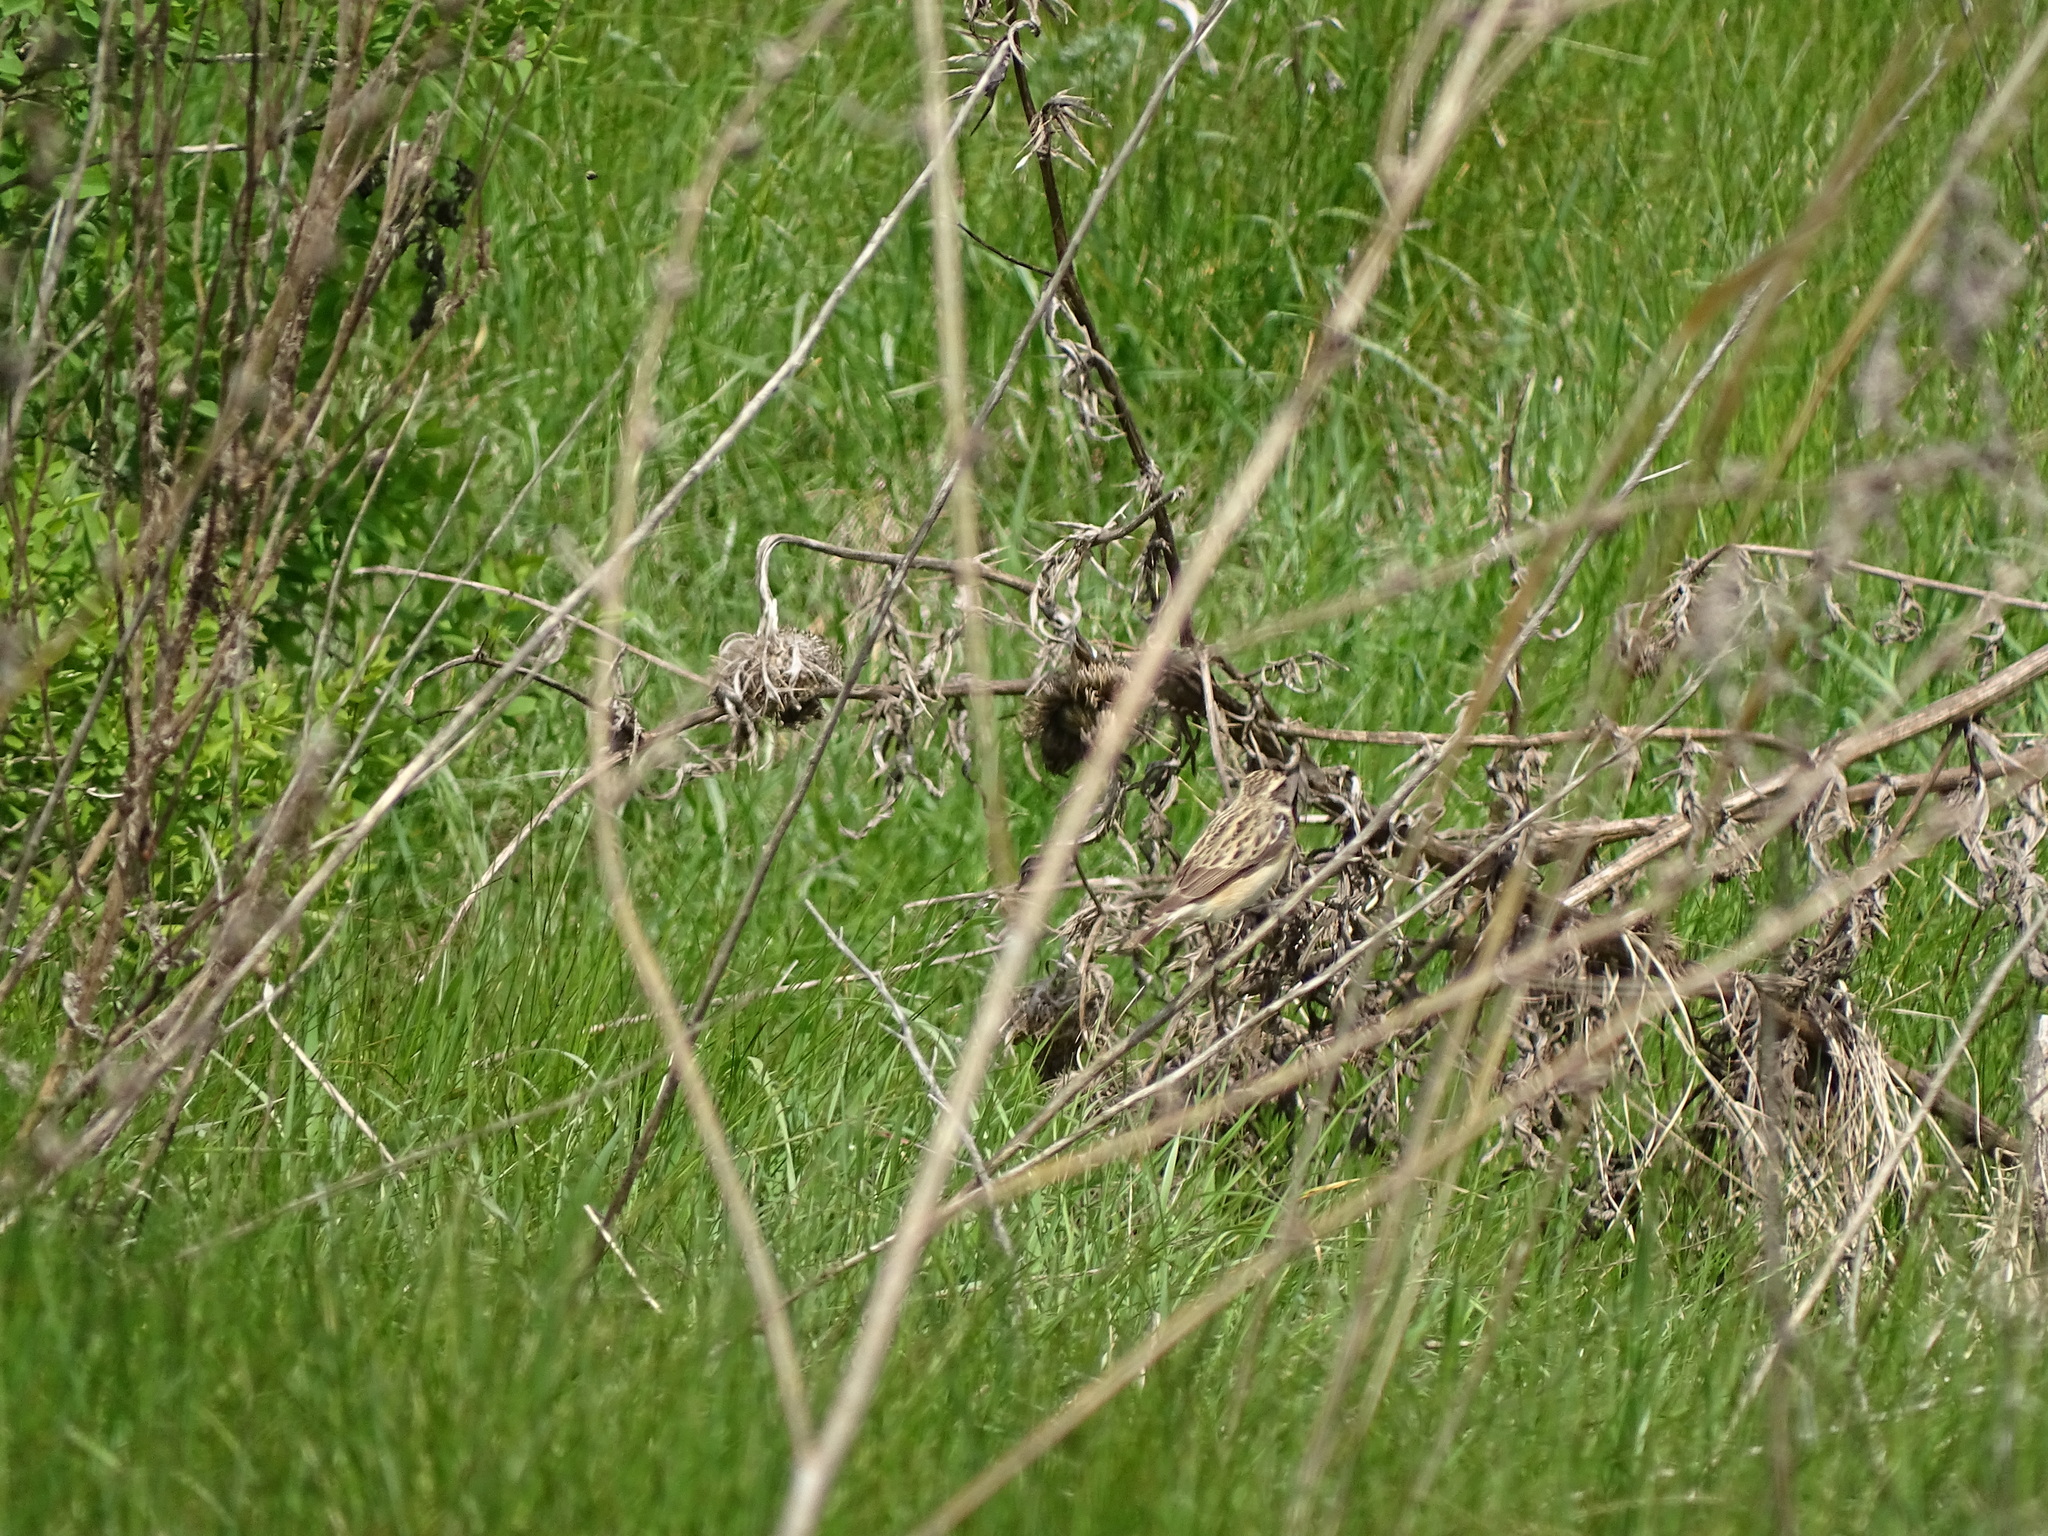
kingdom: Animalia
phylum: Chordata
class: Aves
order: Passeriformes
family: Muscicapidae
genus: Saxicola
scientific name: Saxicola rubetra
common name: Whinchat
